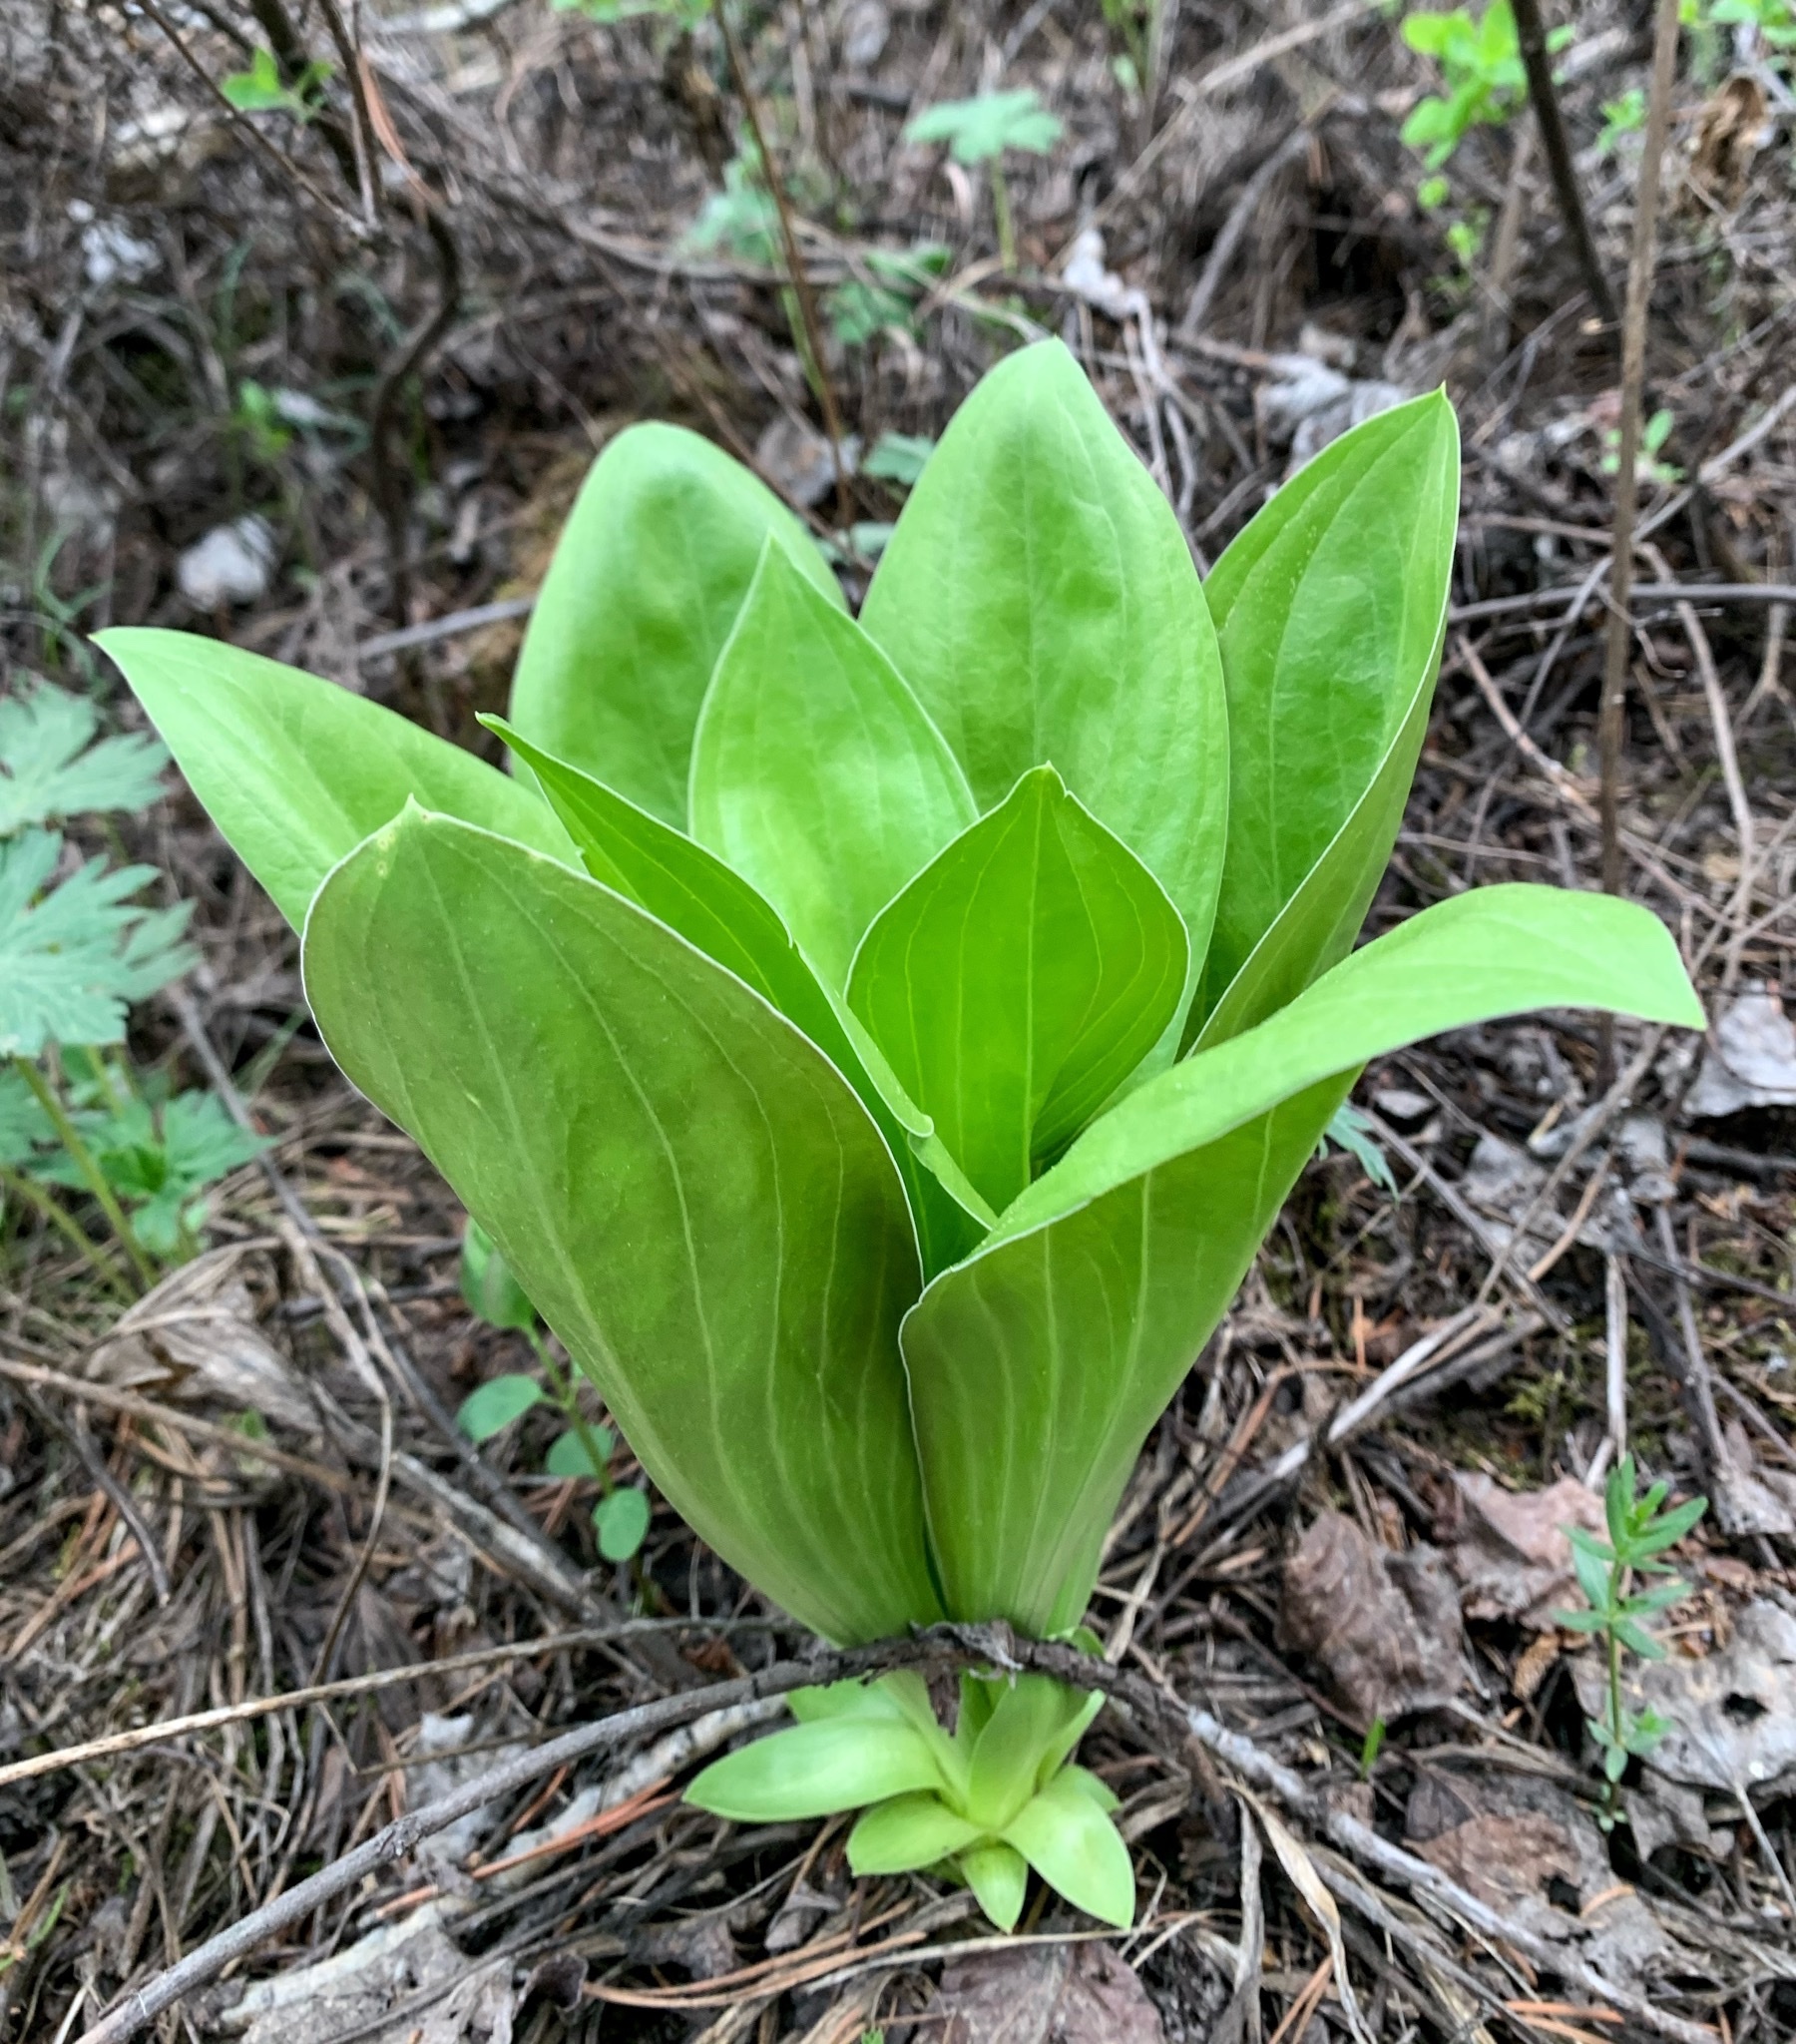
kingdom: Plantae
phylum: Tracheophyta
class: Magnoliopsida
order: Gentianales
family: Gentianaceae
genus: Frasera
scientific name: Frasera speciosa
